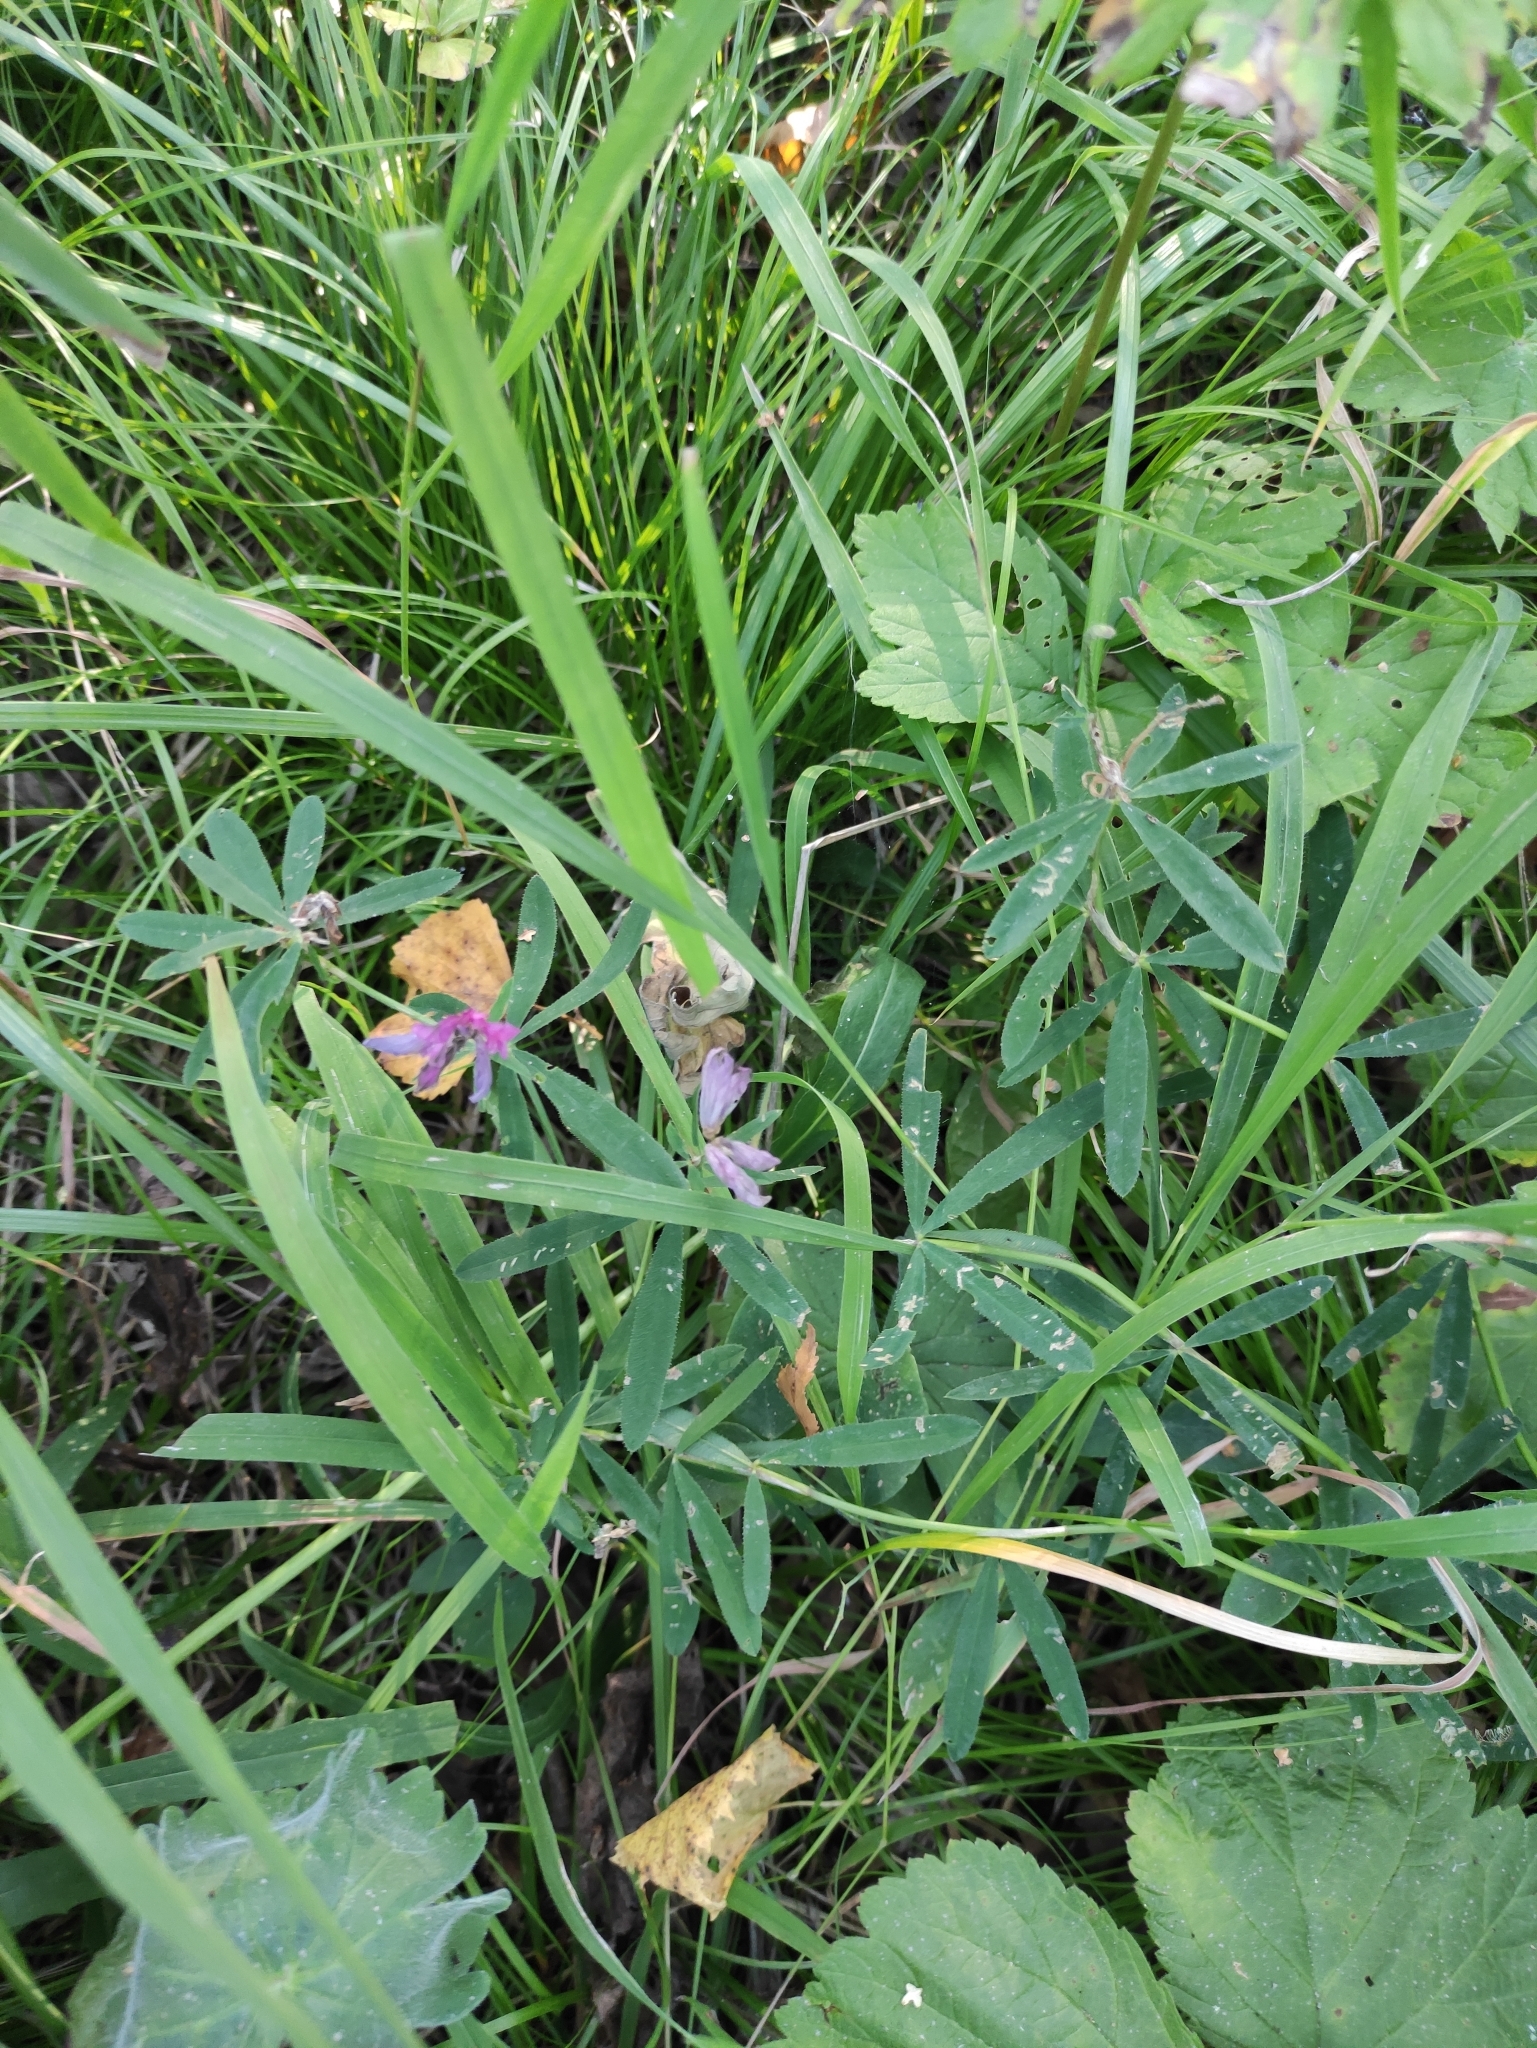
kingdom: Plantae
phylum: Tracheophyta
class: Magnoliopsida
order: Fabales
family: Fabaceae
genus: Trifolium
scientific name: Trifolium lupinaster
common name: Lupine clover
